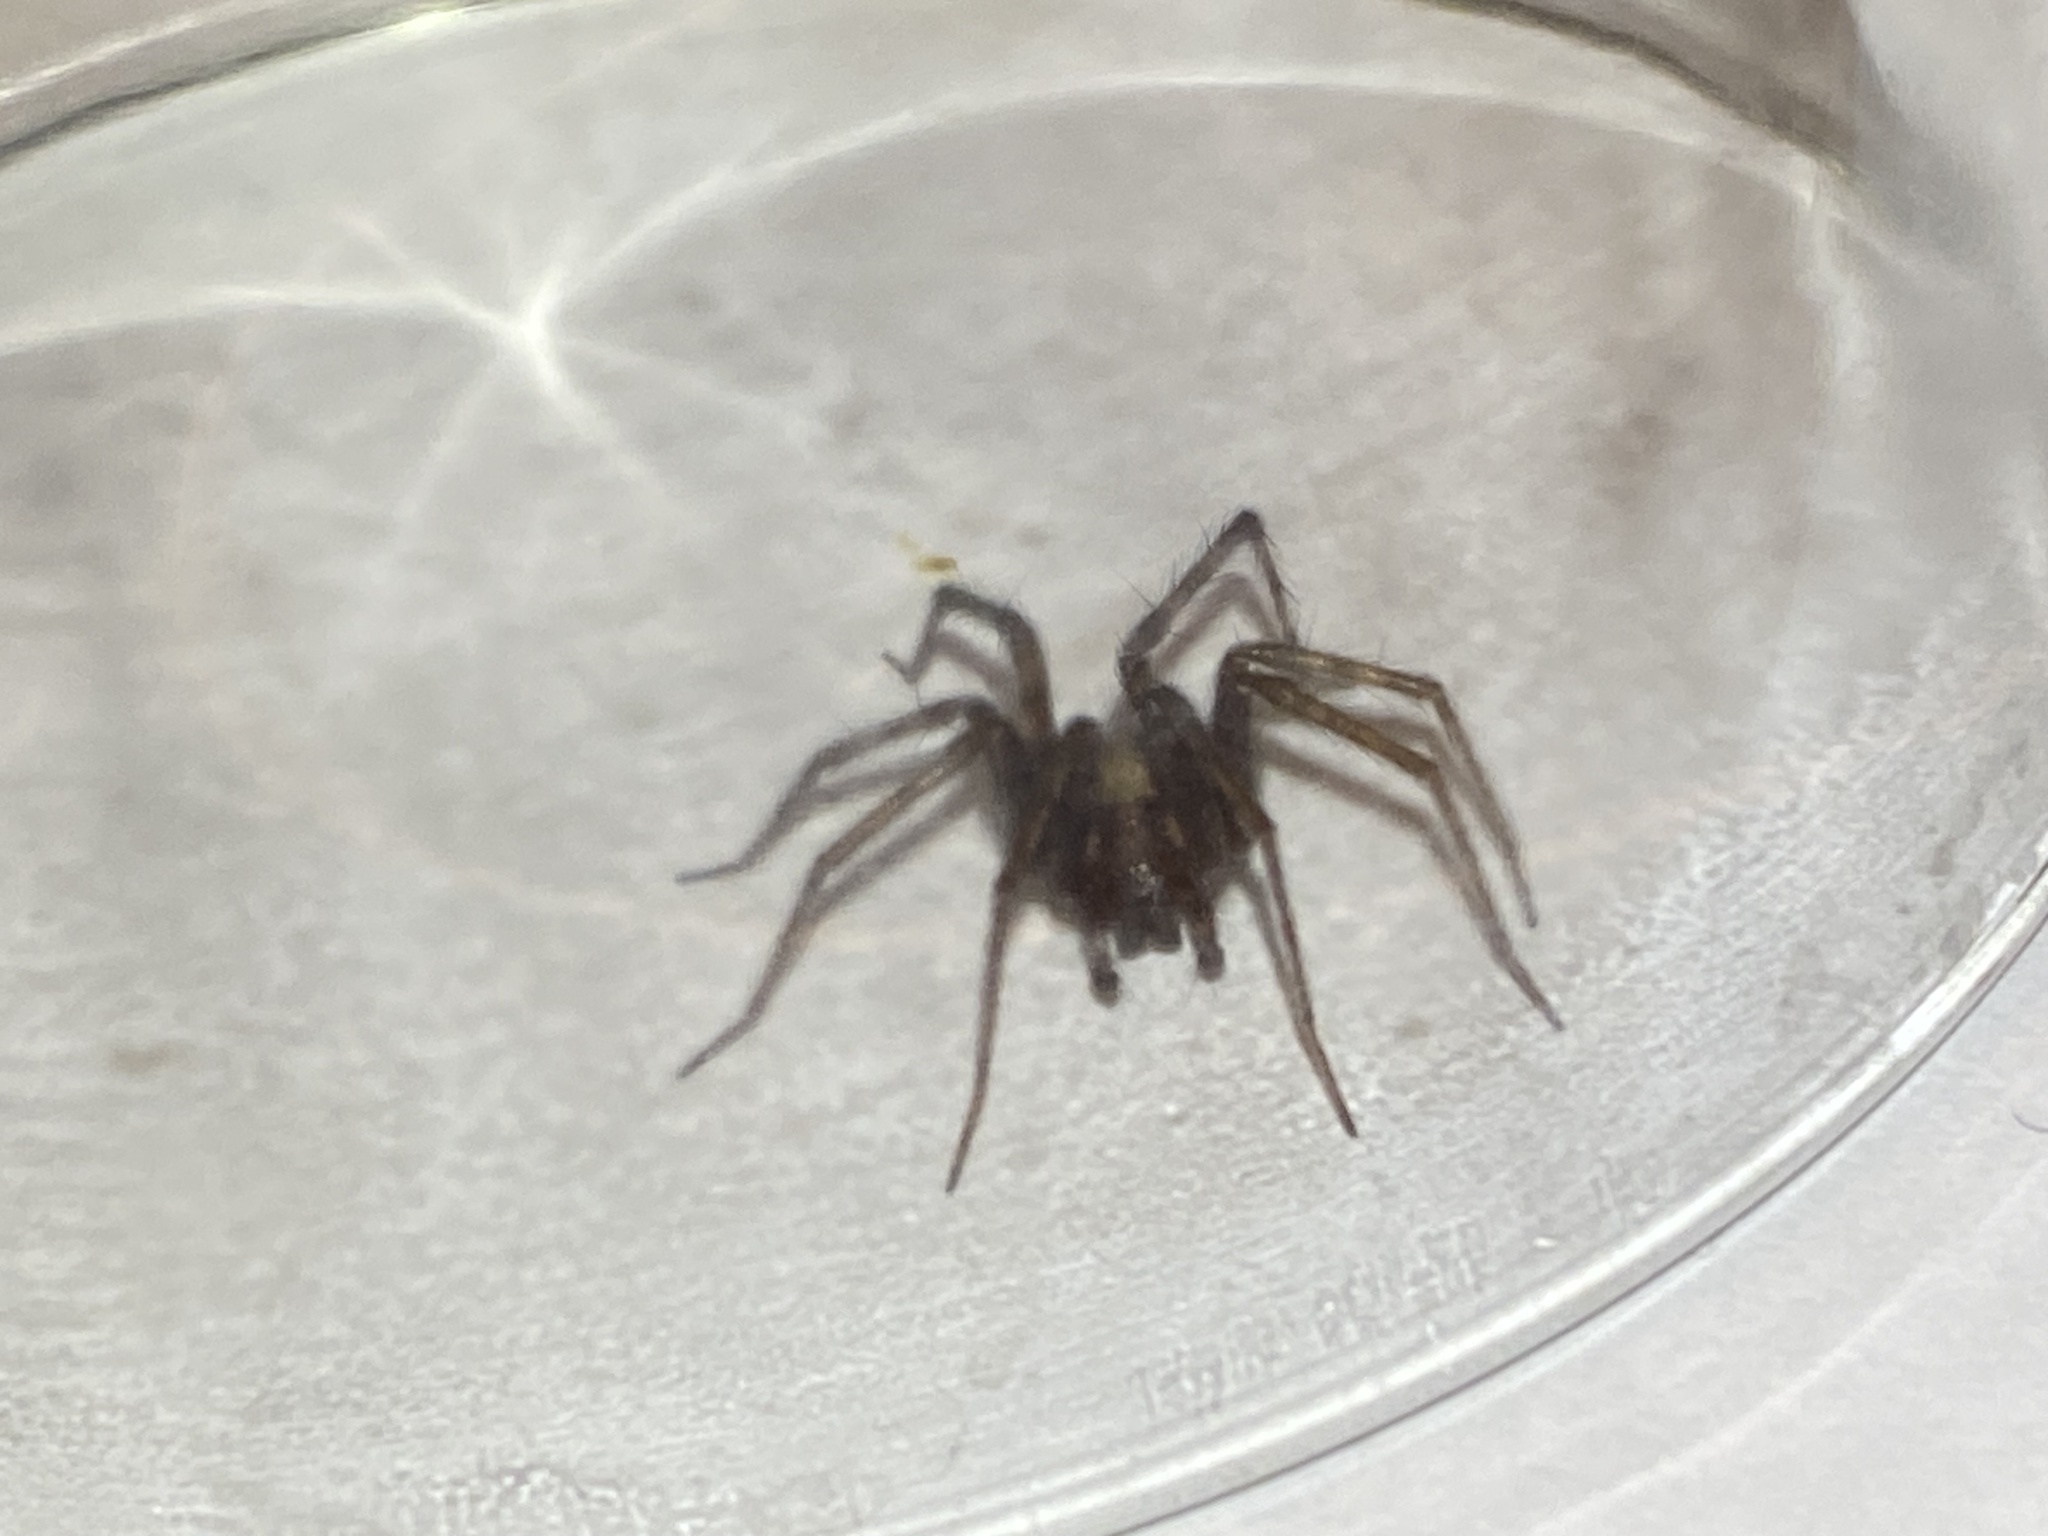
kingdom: Animalia
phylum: Arthropoda
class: Arachnida
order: Araneae
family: Agelenidae
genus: Tegenaria
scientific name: Tegenaria domestica
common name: Barn funnel weaver
